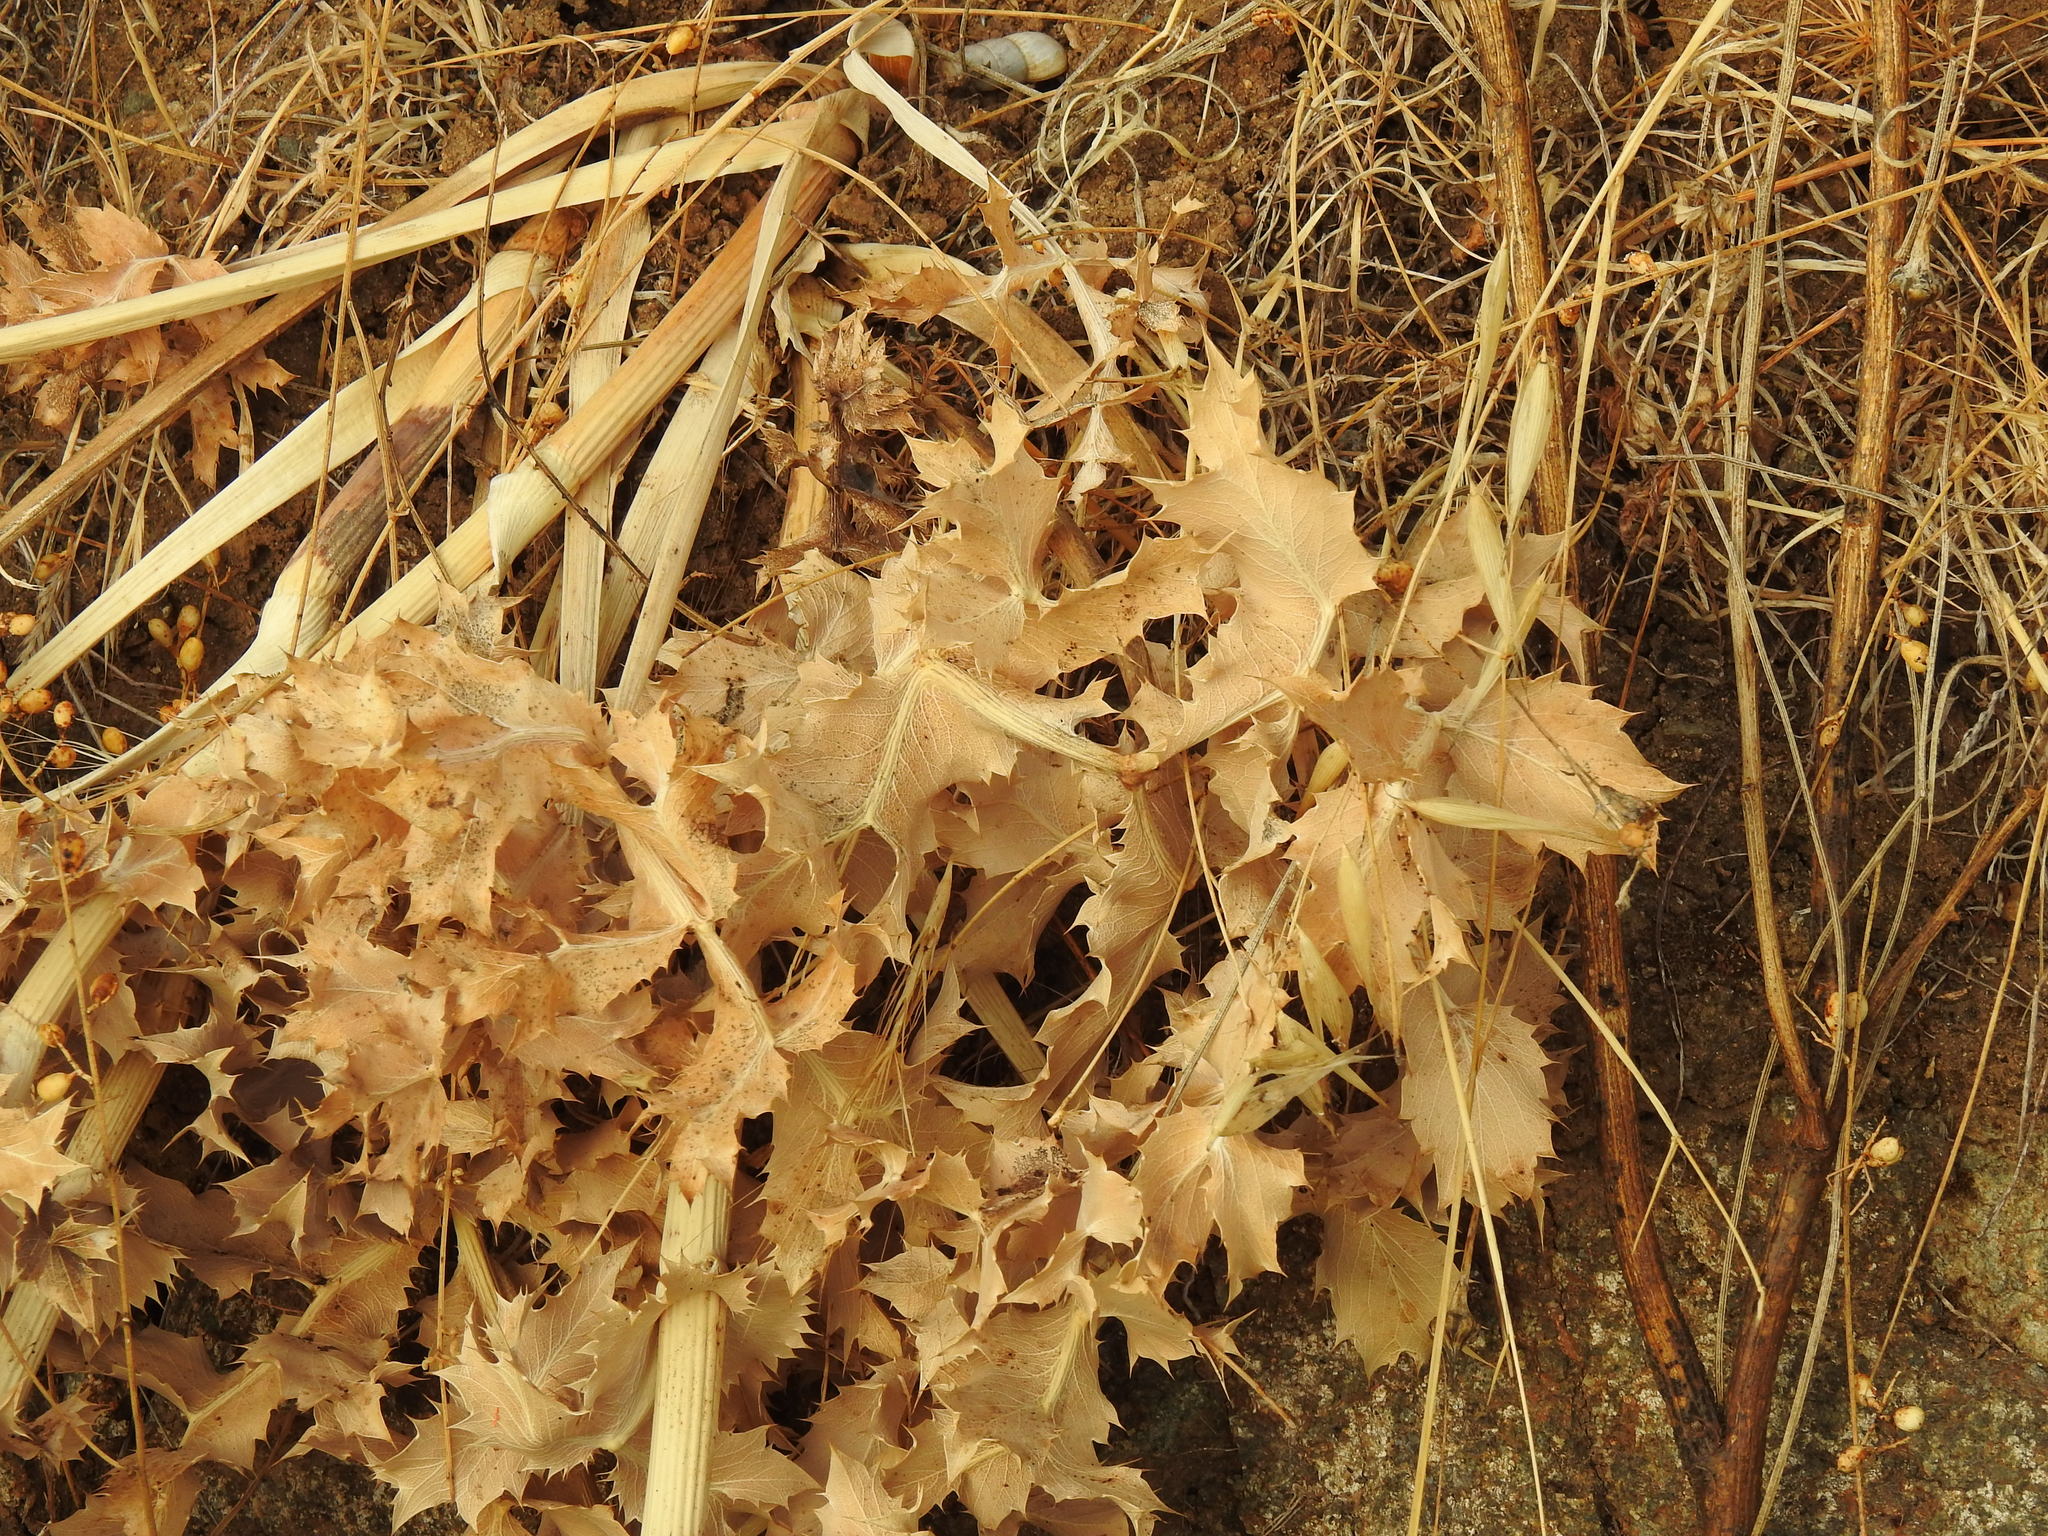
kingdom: Plantae
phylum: Tracheophyta
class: Magnoliopsida
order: Apiales
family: Apiaceae
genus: Eryngium
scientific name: Eryngium campestre
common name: Field eryngo
